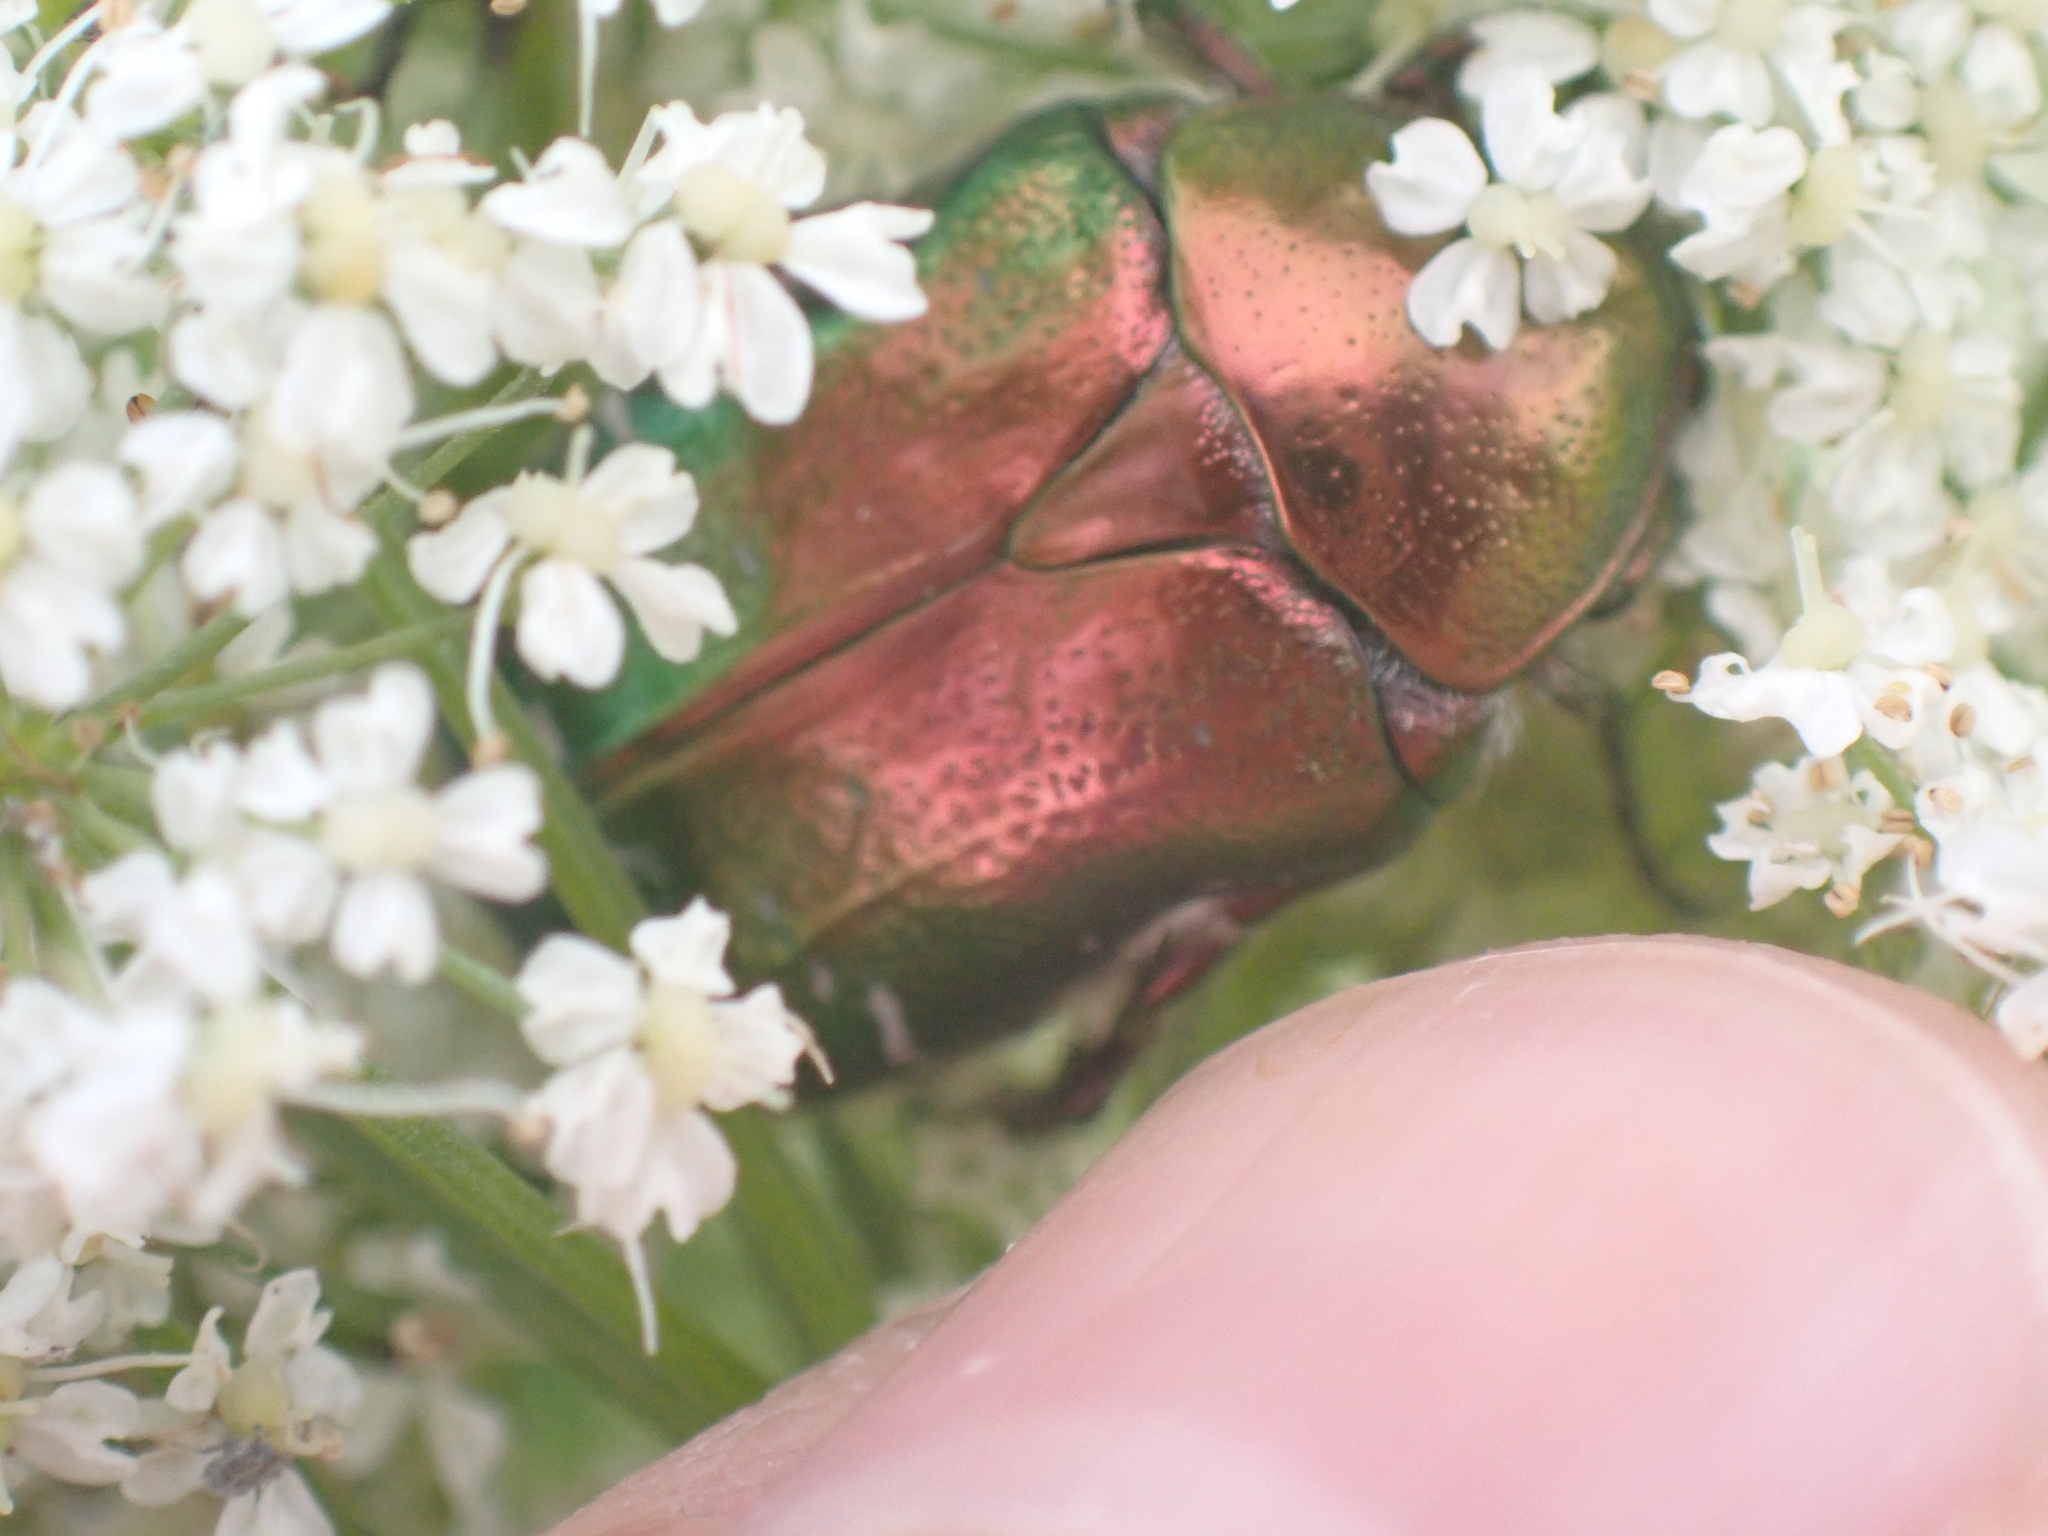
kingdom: Animalia
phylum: Arthropoda
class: Insecta
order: Coleoptera
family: Scarabaeidae
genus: Cetonia
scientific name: Cetonia aurata
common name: Rose chafer
